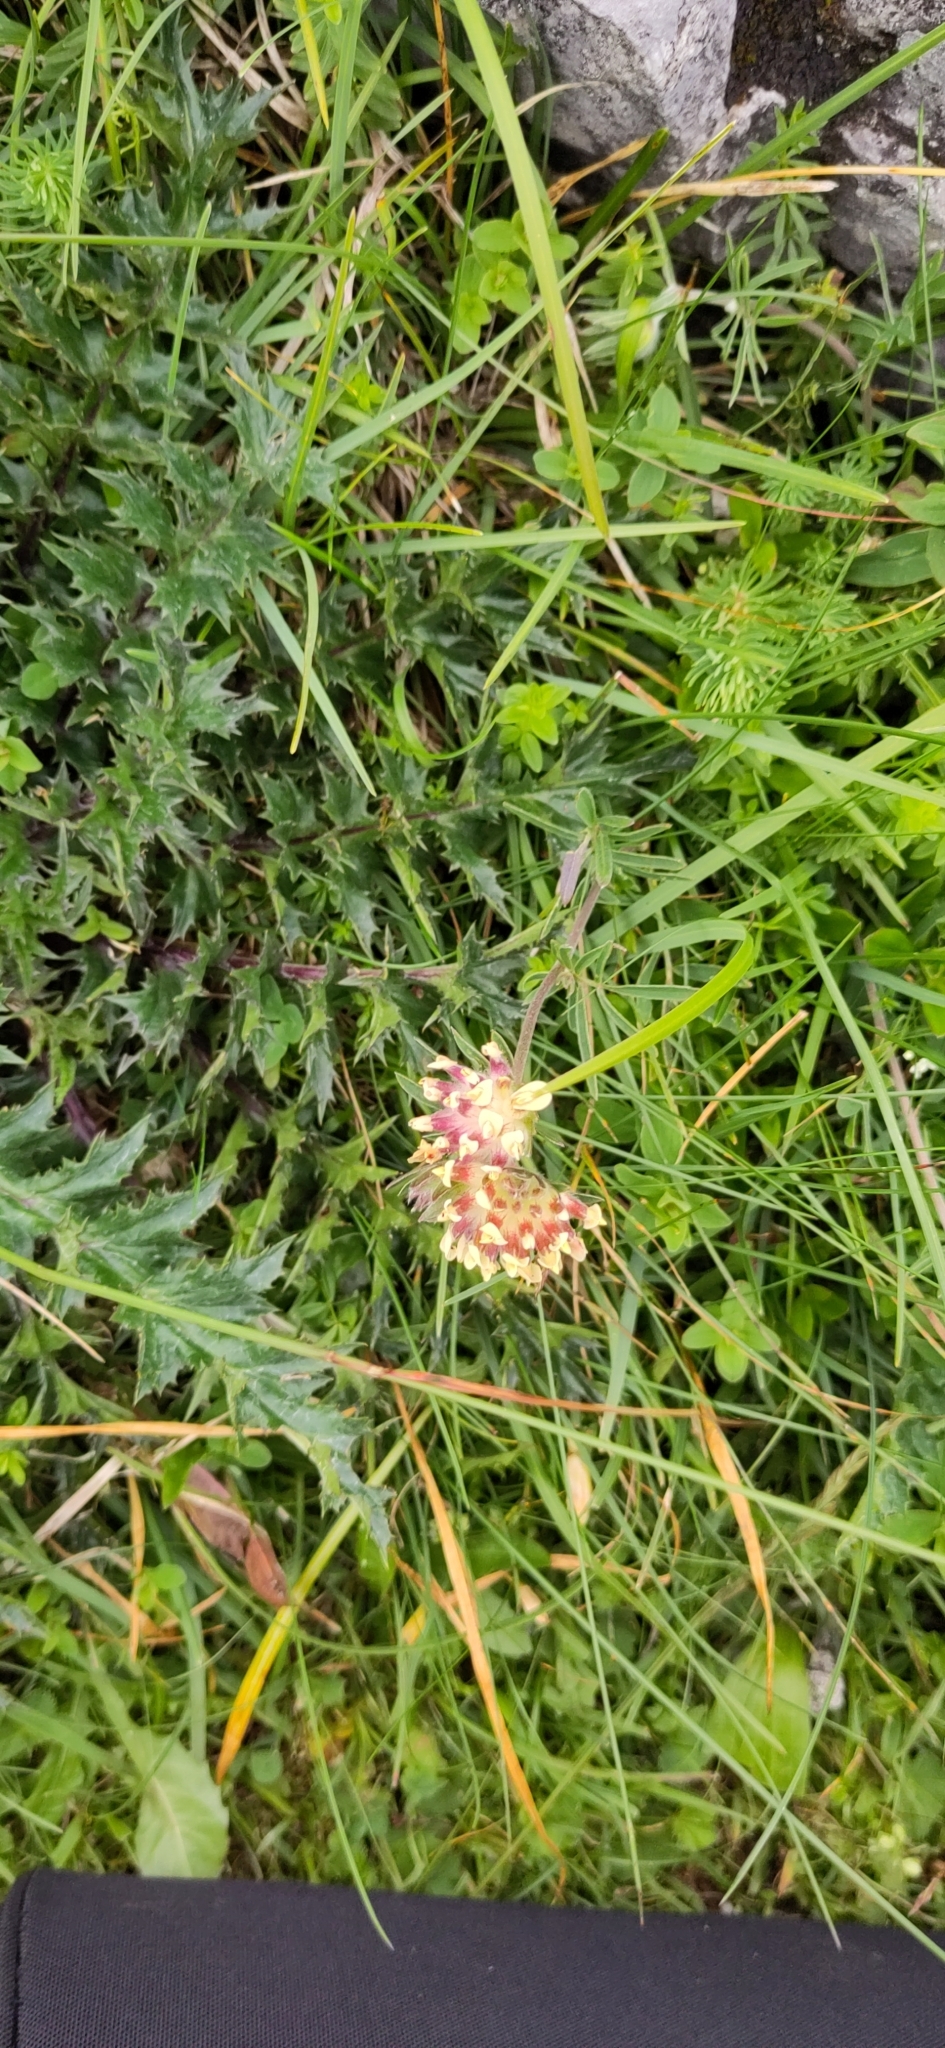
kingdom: Plantae
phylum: Tracheophyta
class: Magnoliopsida
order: Fabales
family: Fabaceae
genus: Anthyllis
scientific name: Anthyllis vulneraria
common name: Kidney vetch
